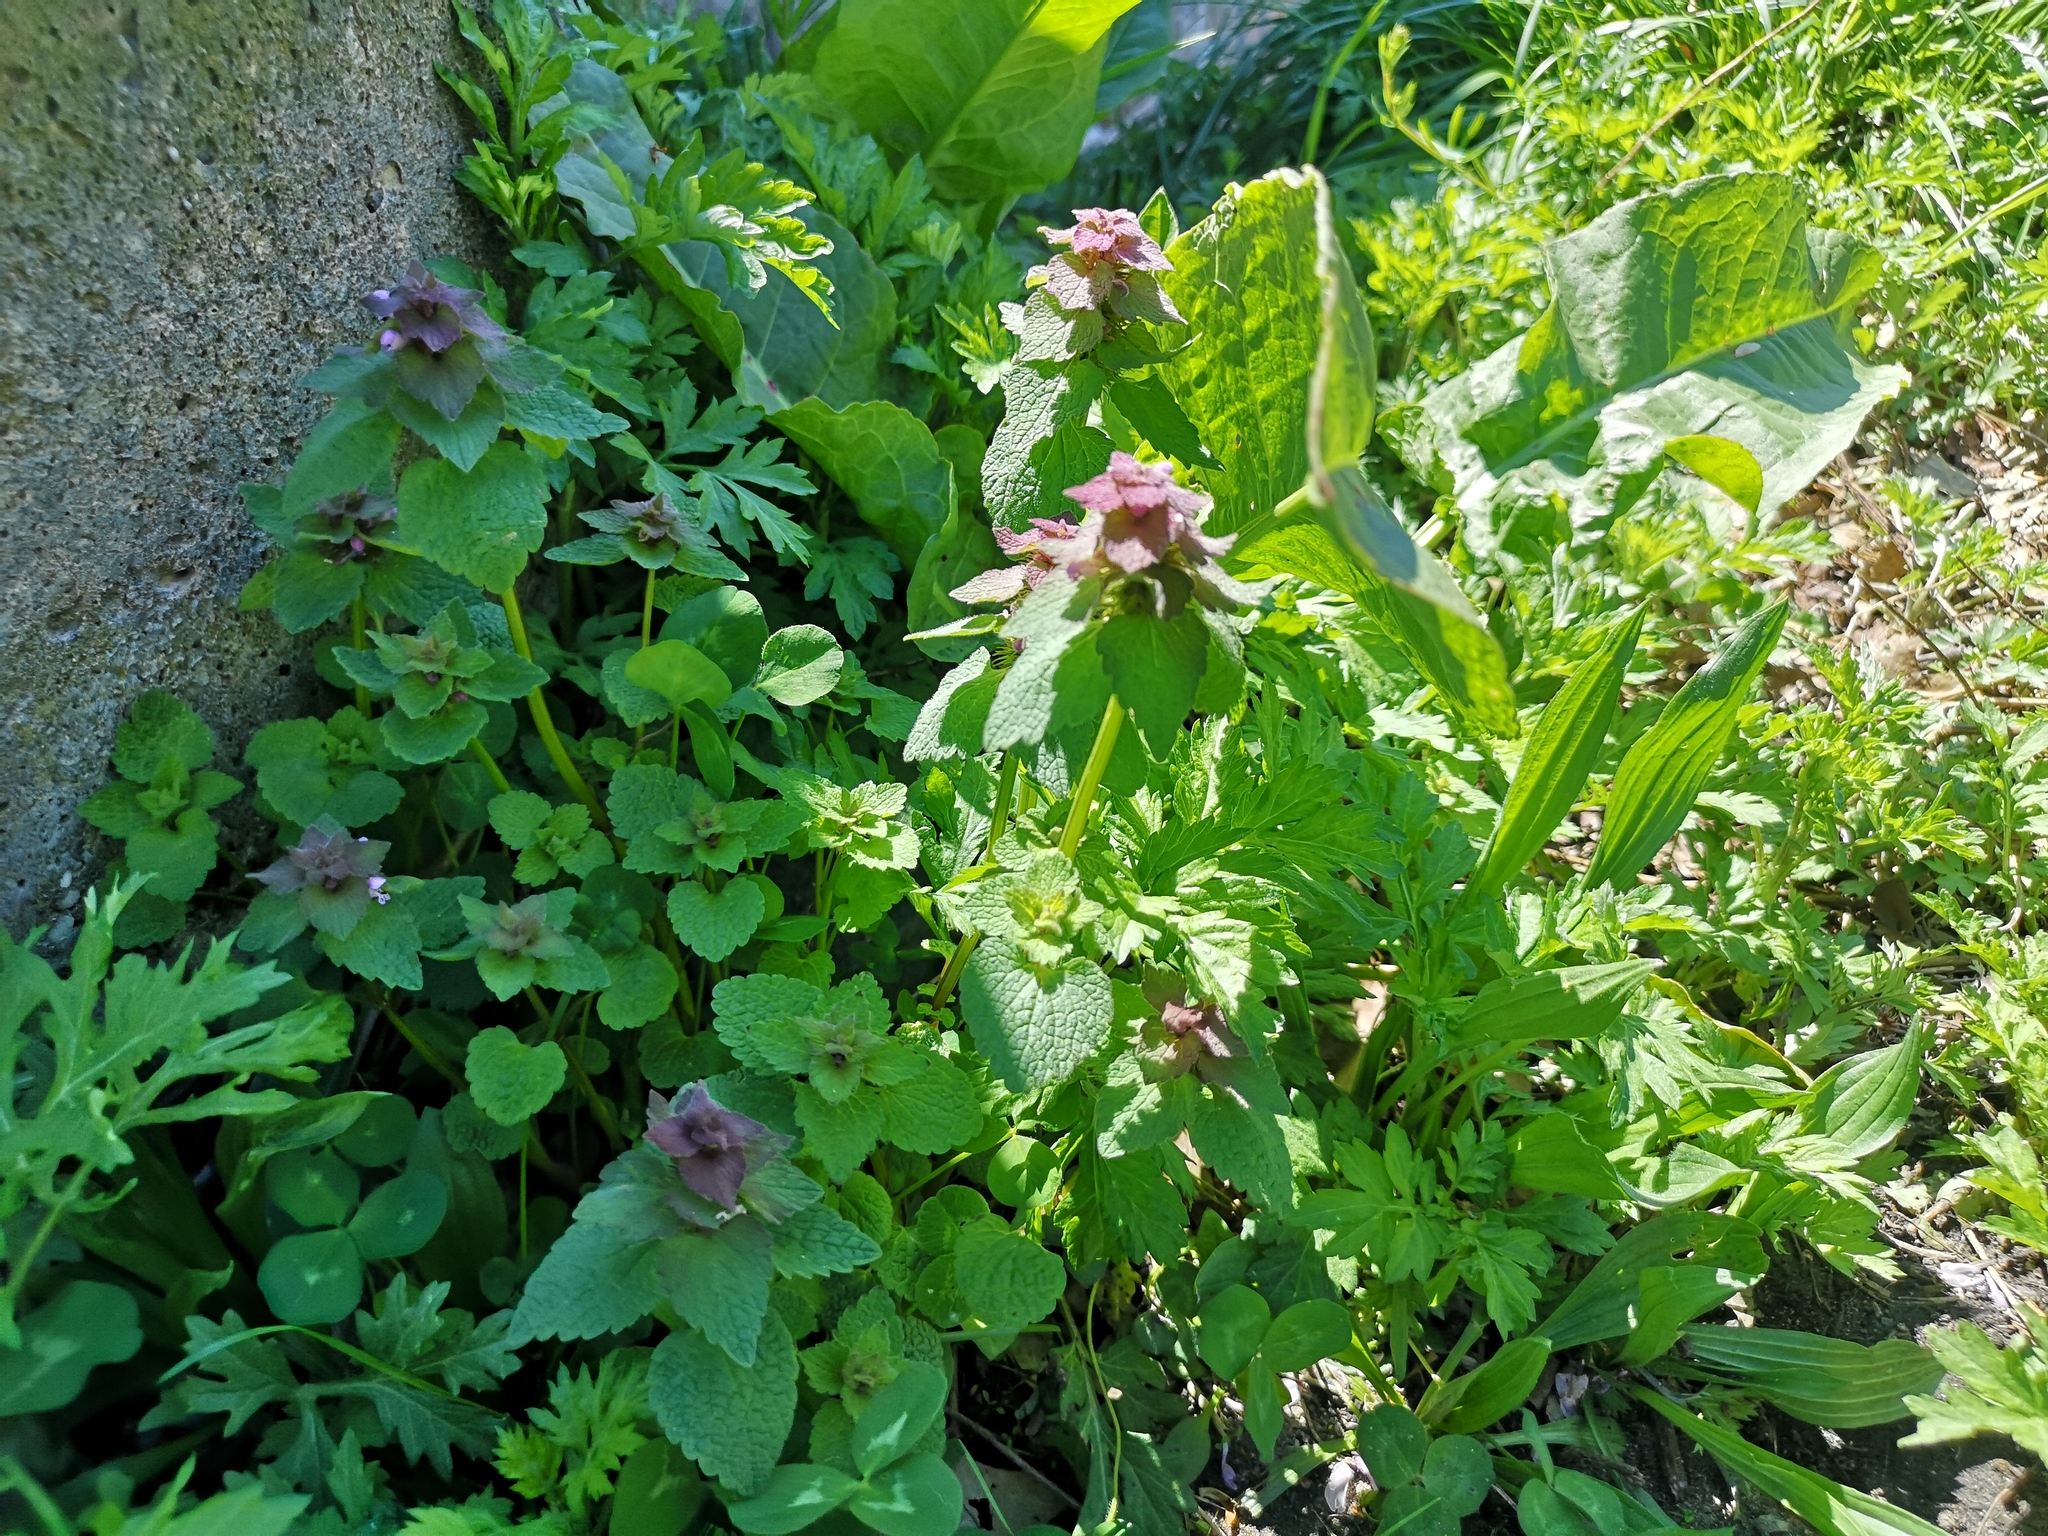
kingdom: Plantae
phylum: Tracheophyta
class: Magnoliopsida
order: Lamiales
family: Lamiaceae
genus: Lamium
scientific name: Lamium purpureum
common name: Red dead-nettle
